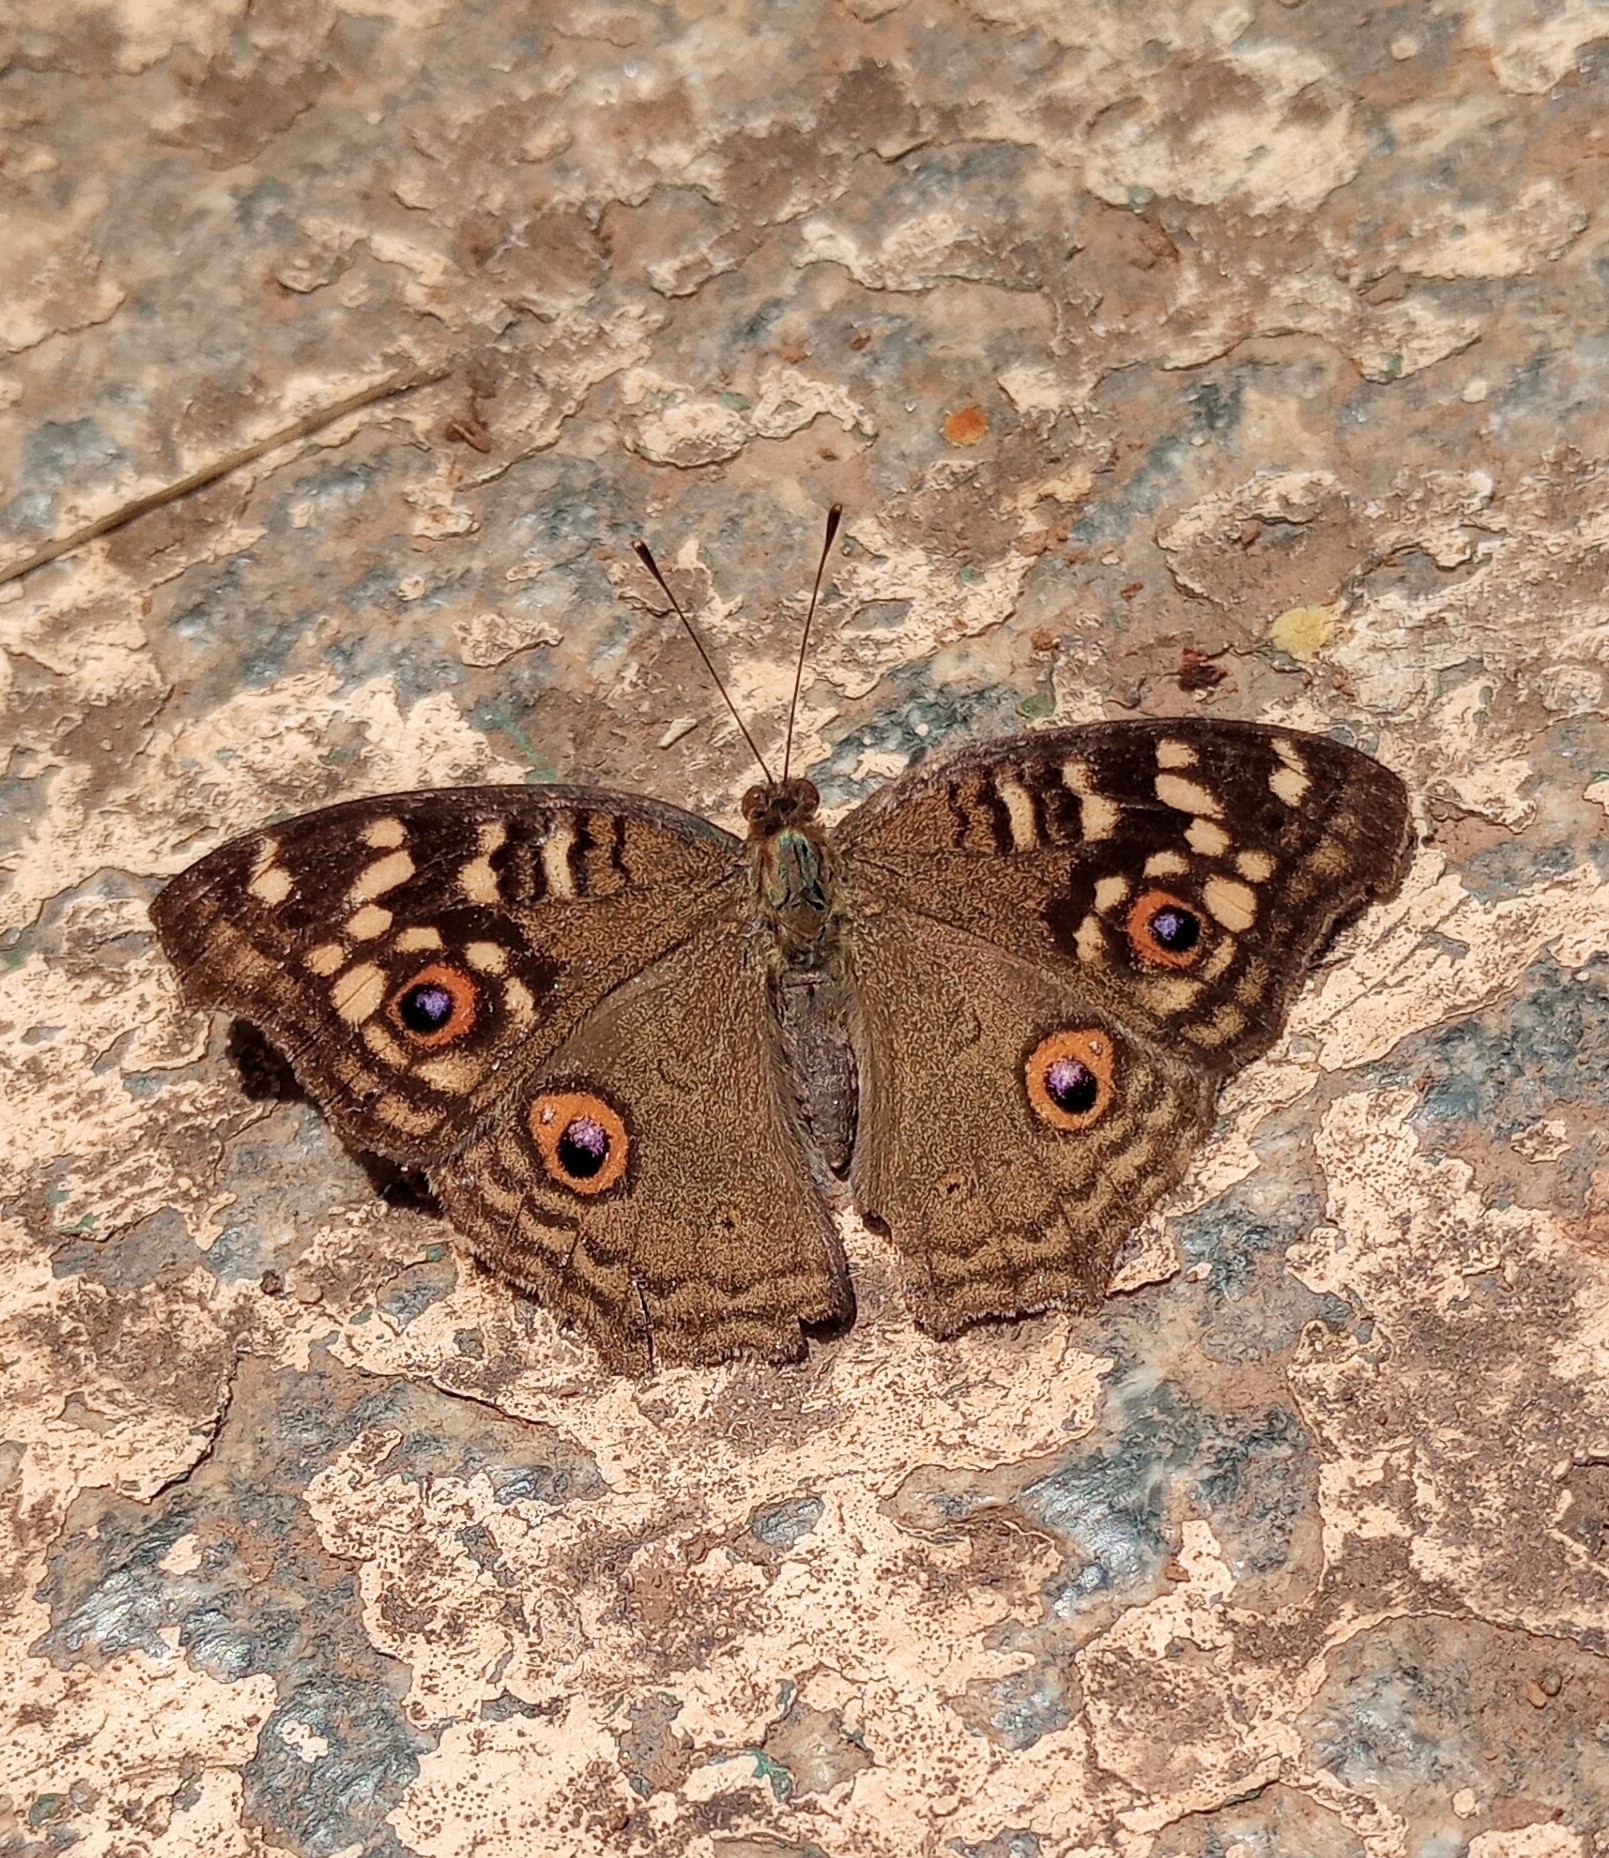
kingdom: Animalia
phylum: Arthropoda
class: Insecta
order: Lepidoptera
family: Nymphalidae
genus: Junonia
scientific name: Junonia lemonias
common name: Lemon pansy
